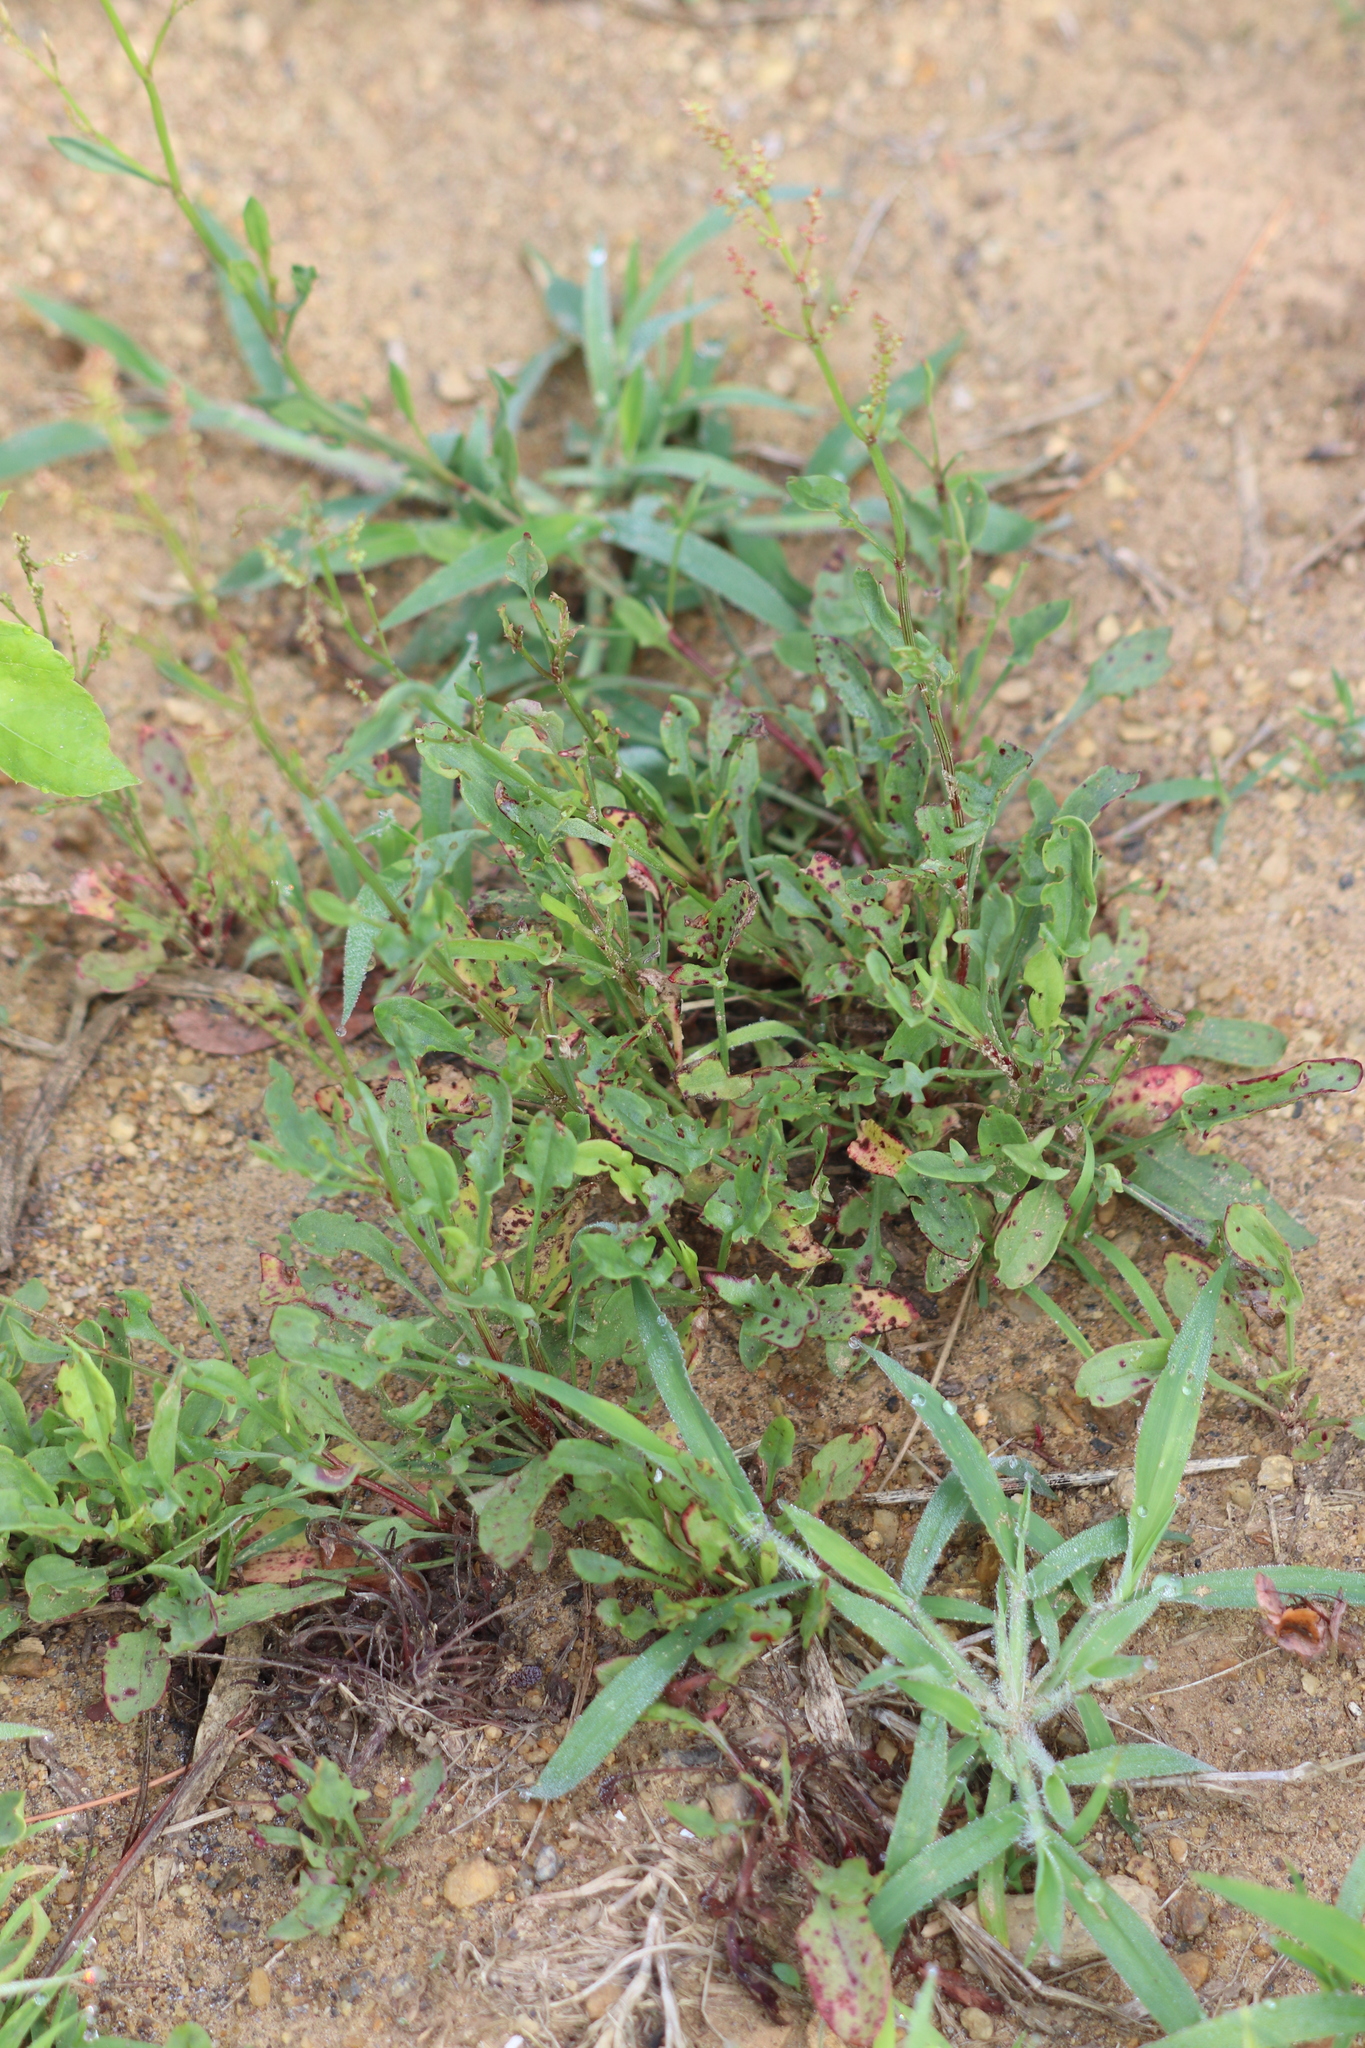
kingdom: Plantae
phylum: Tracheophyta
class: Magnoliopsida
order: Caryophyllales
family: Polygonaceae
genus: Rumex
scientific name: Rumex acetosella
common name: Common sheep sorrel
